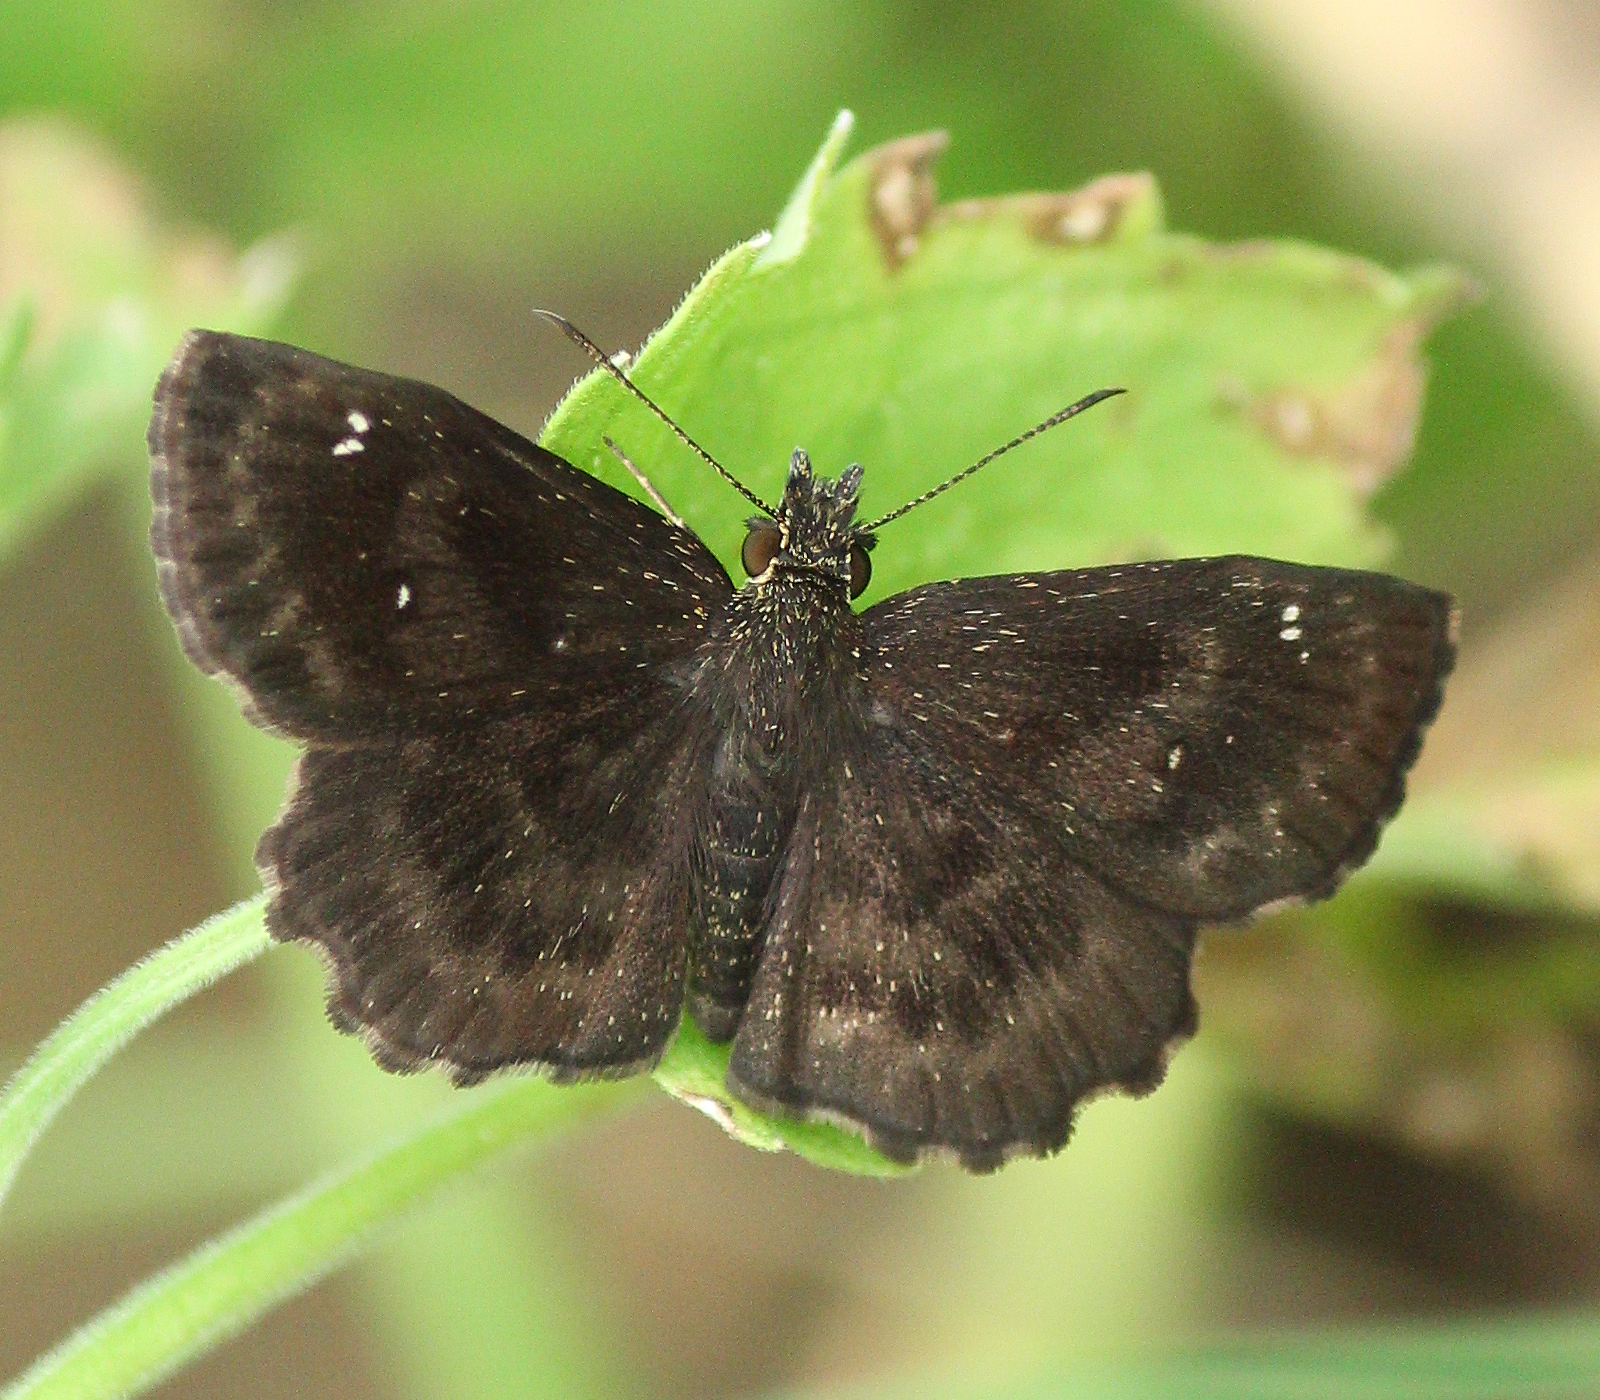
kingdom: Animalia
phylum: Arthropoda
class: Insecta
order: Lepidoptera
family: Hesperiidae
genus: Staphylus
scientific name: Staphylus mazans
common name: Mazans scallopwing
